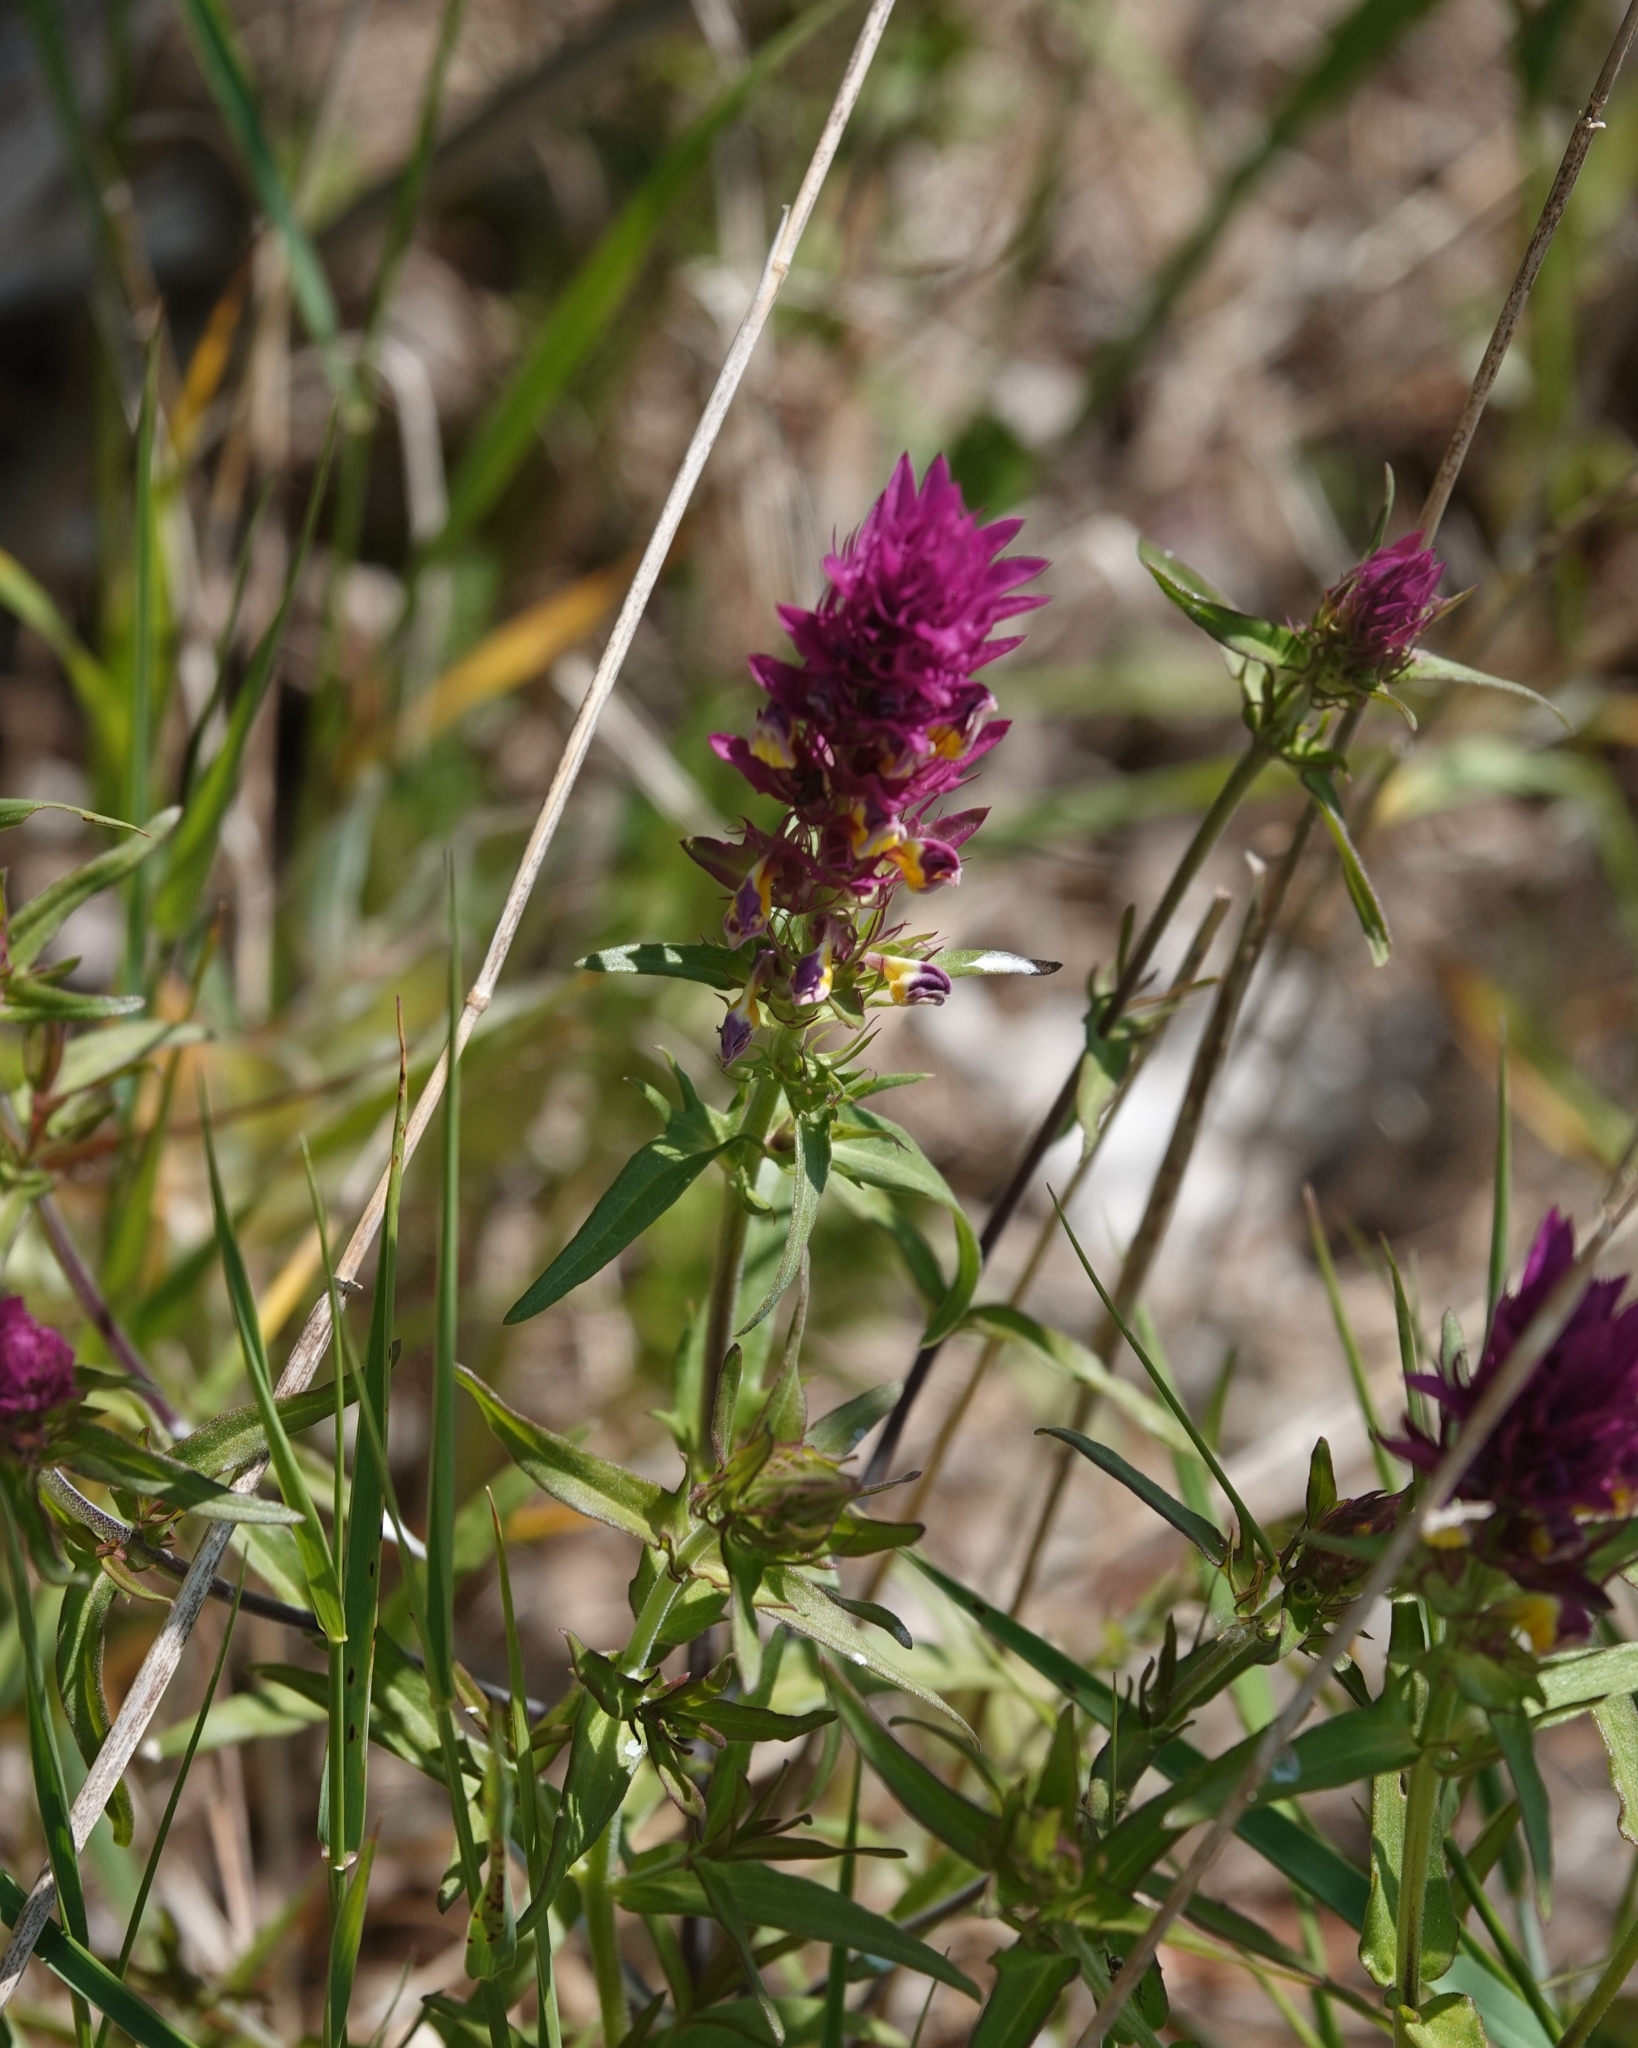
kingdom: Plantae
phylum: Tracheophyta
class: Magnoliopsida
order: Lamiales
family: Orobanchaceae
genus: Melampyrum
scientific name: Melampyrum arvense
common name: Field cow-wheat
